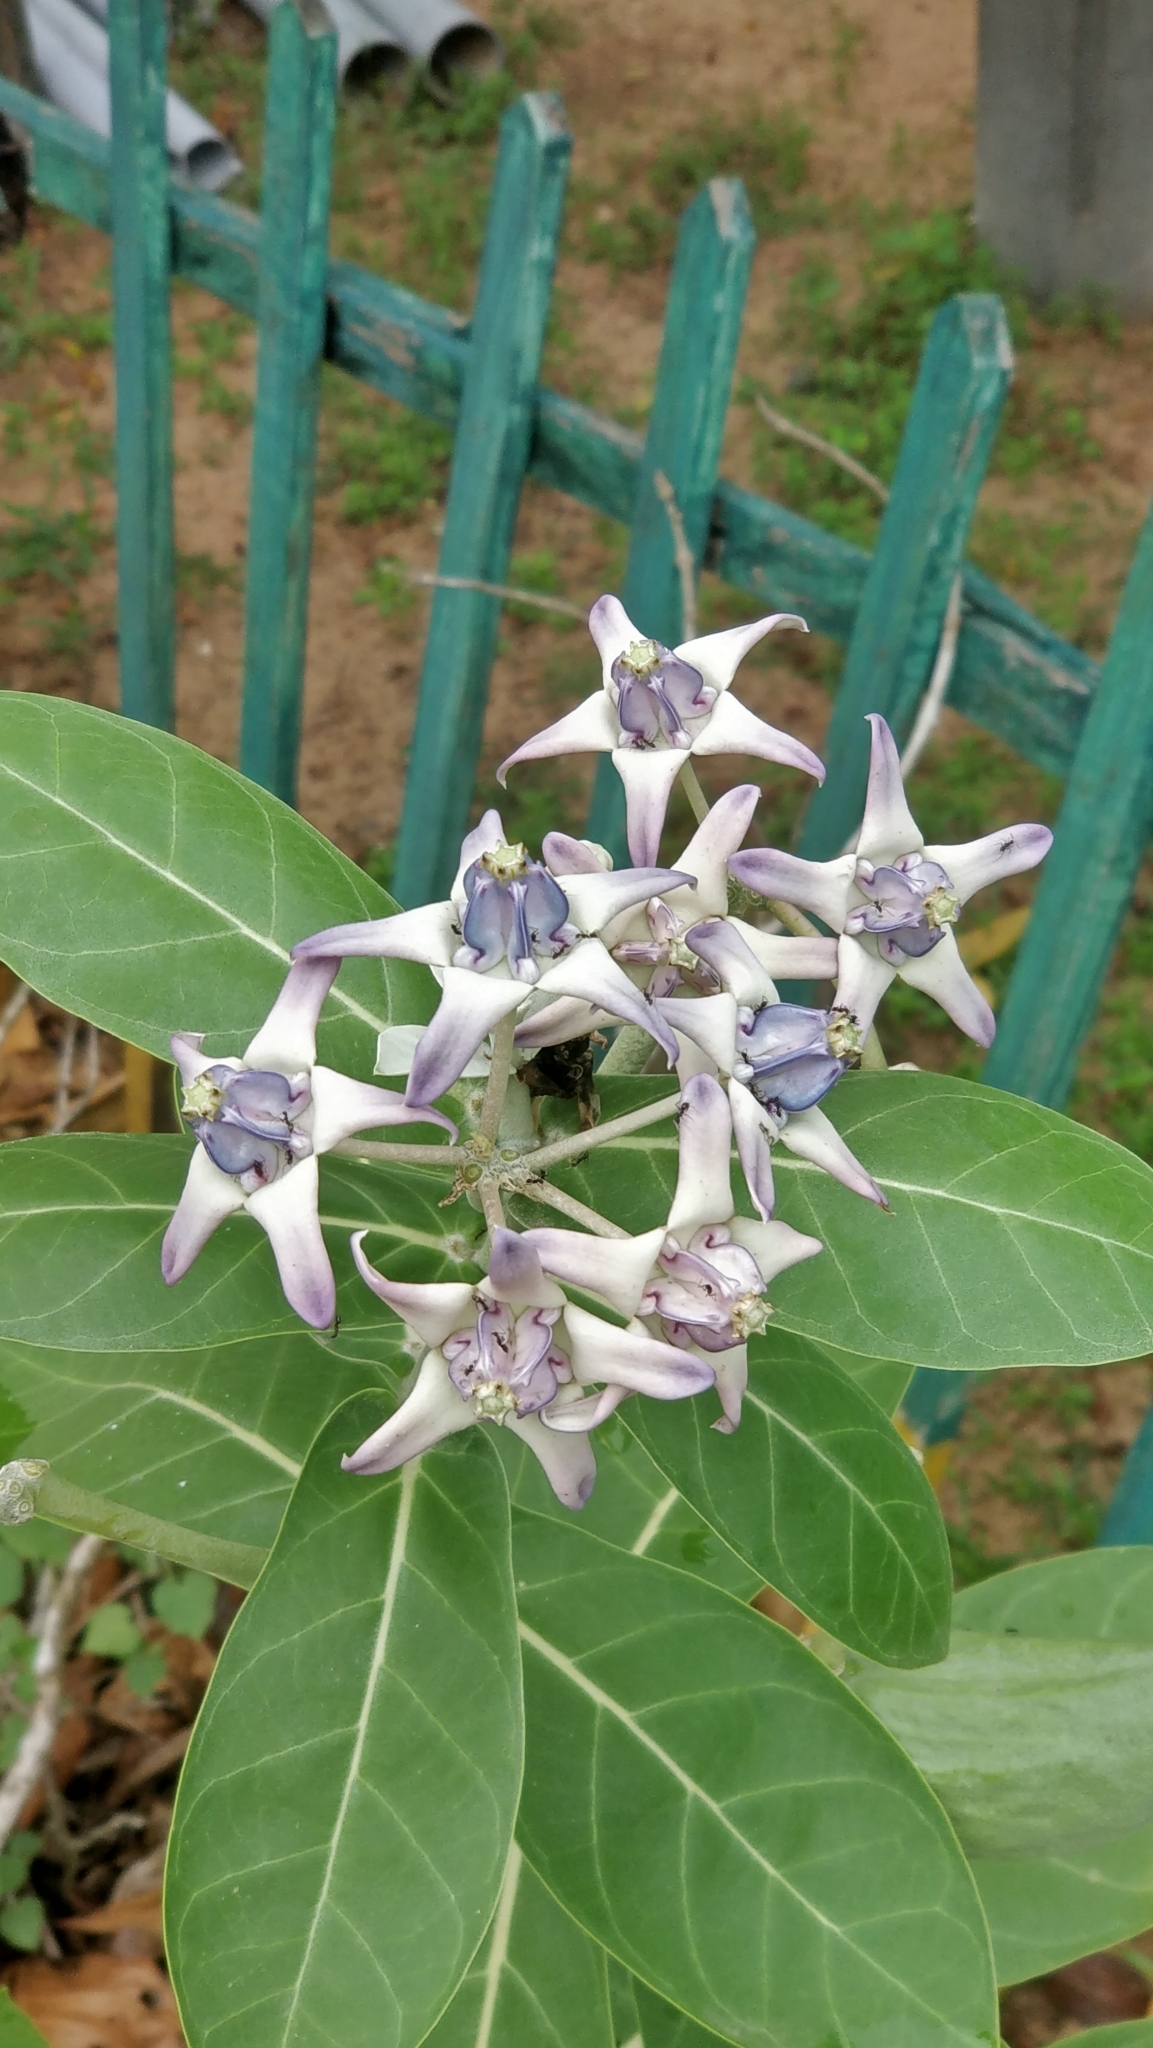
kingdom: Plantae
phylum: Tracheophyta
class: Magnoliopsida
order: Gentianales
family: Apocynaceae
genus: Calotropis
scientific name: Calotropis gigantea
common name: Crown flower
